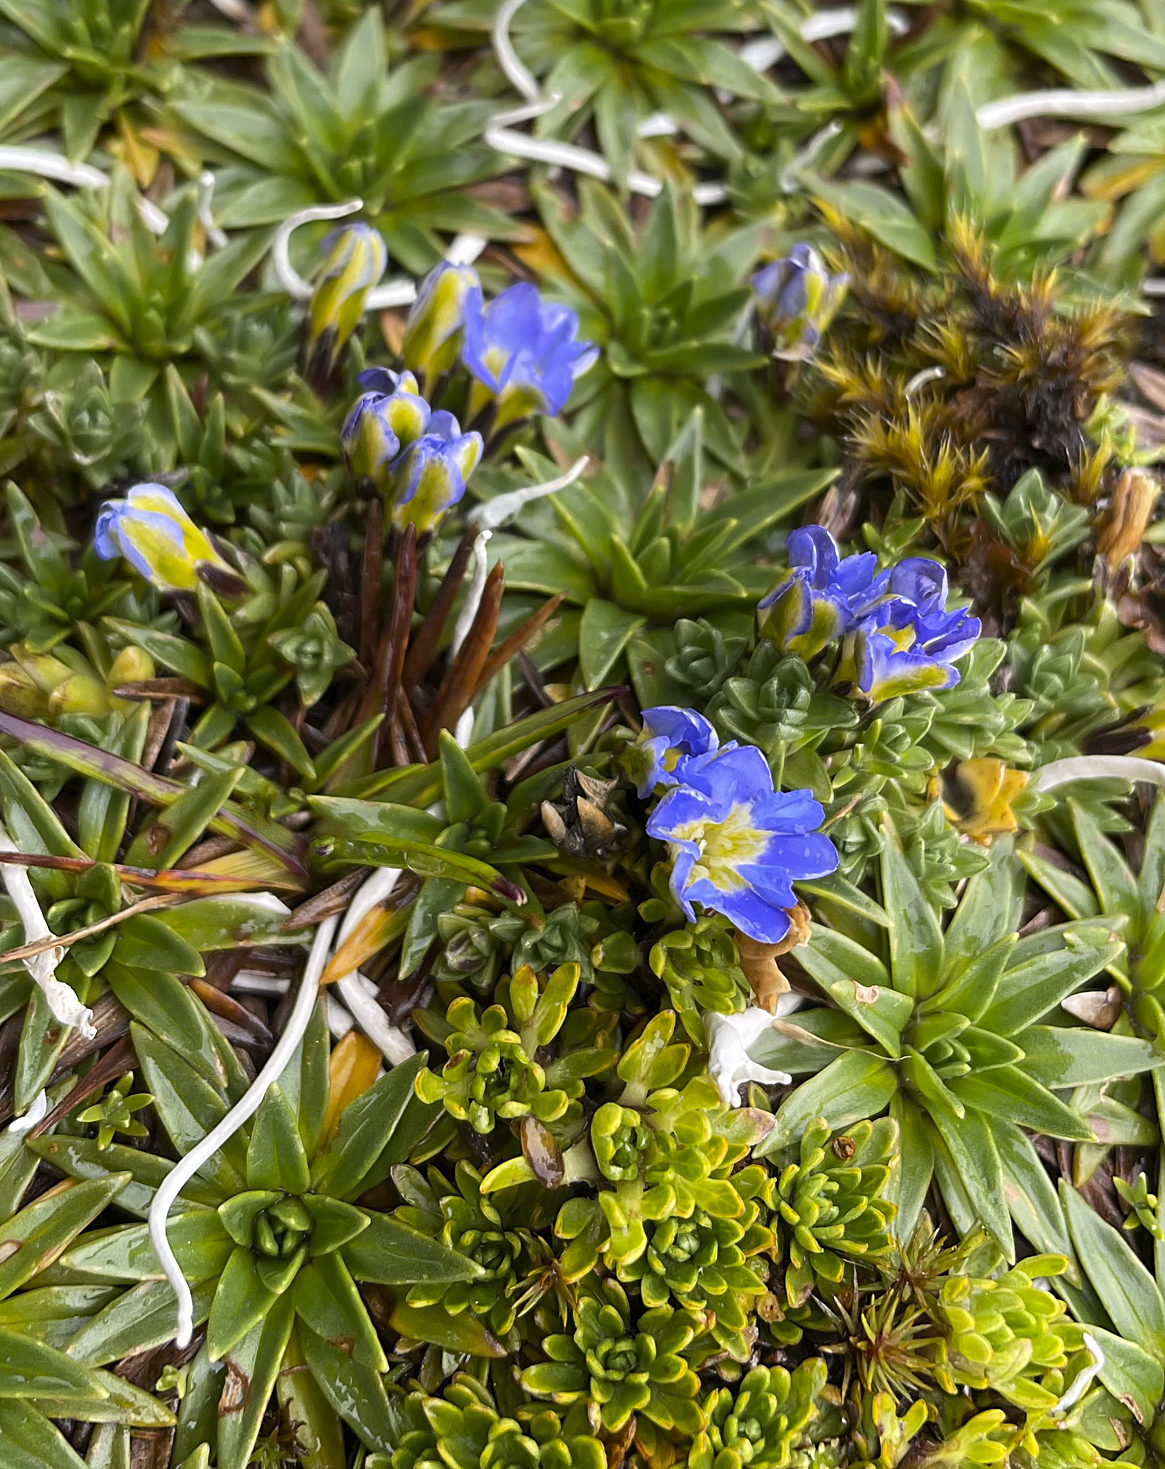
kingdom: Plantae
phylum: Tracheophyta
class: Magnoliopsida
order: Gentianales
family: Gentianaceae
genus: Gentiana
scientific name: Gentiana sedifolia
